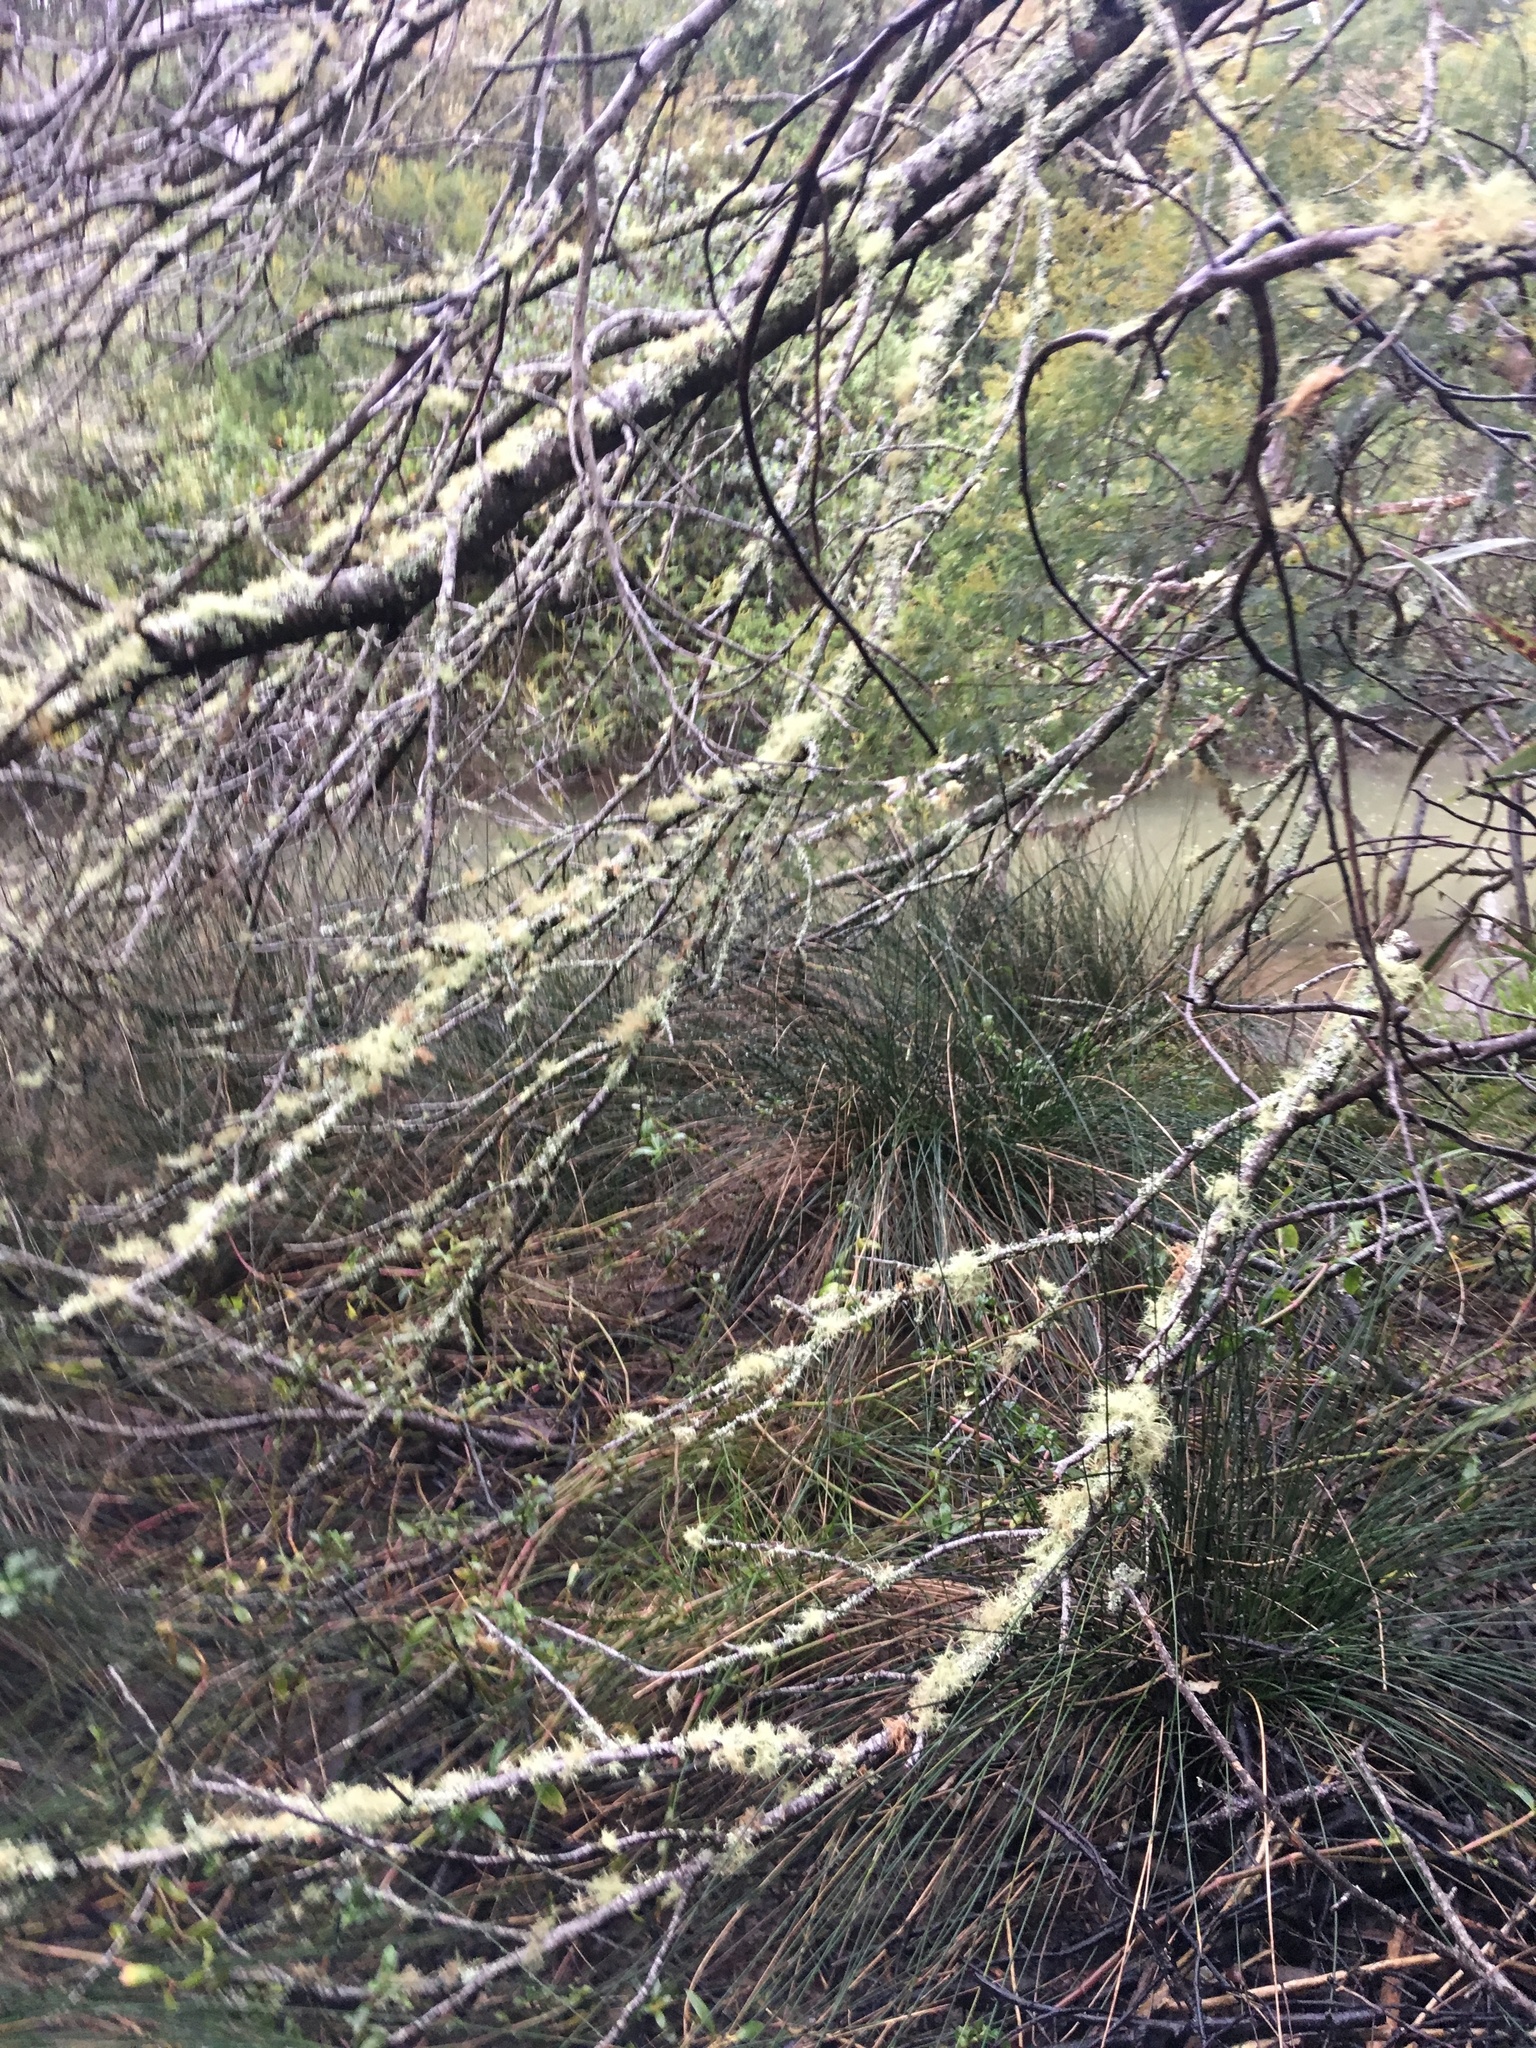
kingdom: Plantae
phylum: Tracheophyta
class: Liliopsida
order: Poales
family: Restionaceae
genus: Apodasmia
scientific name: Apodasmia similis
